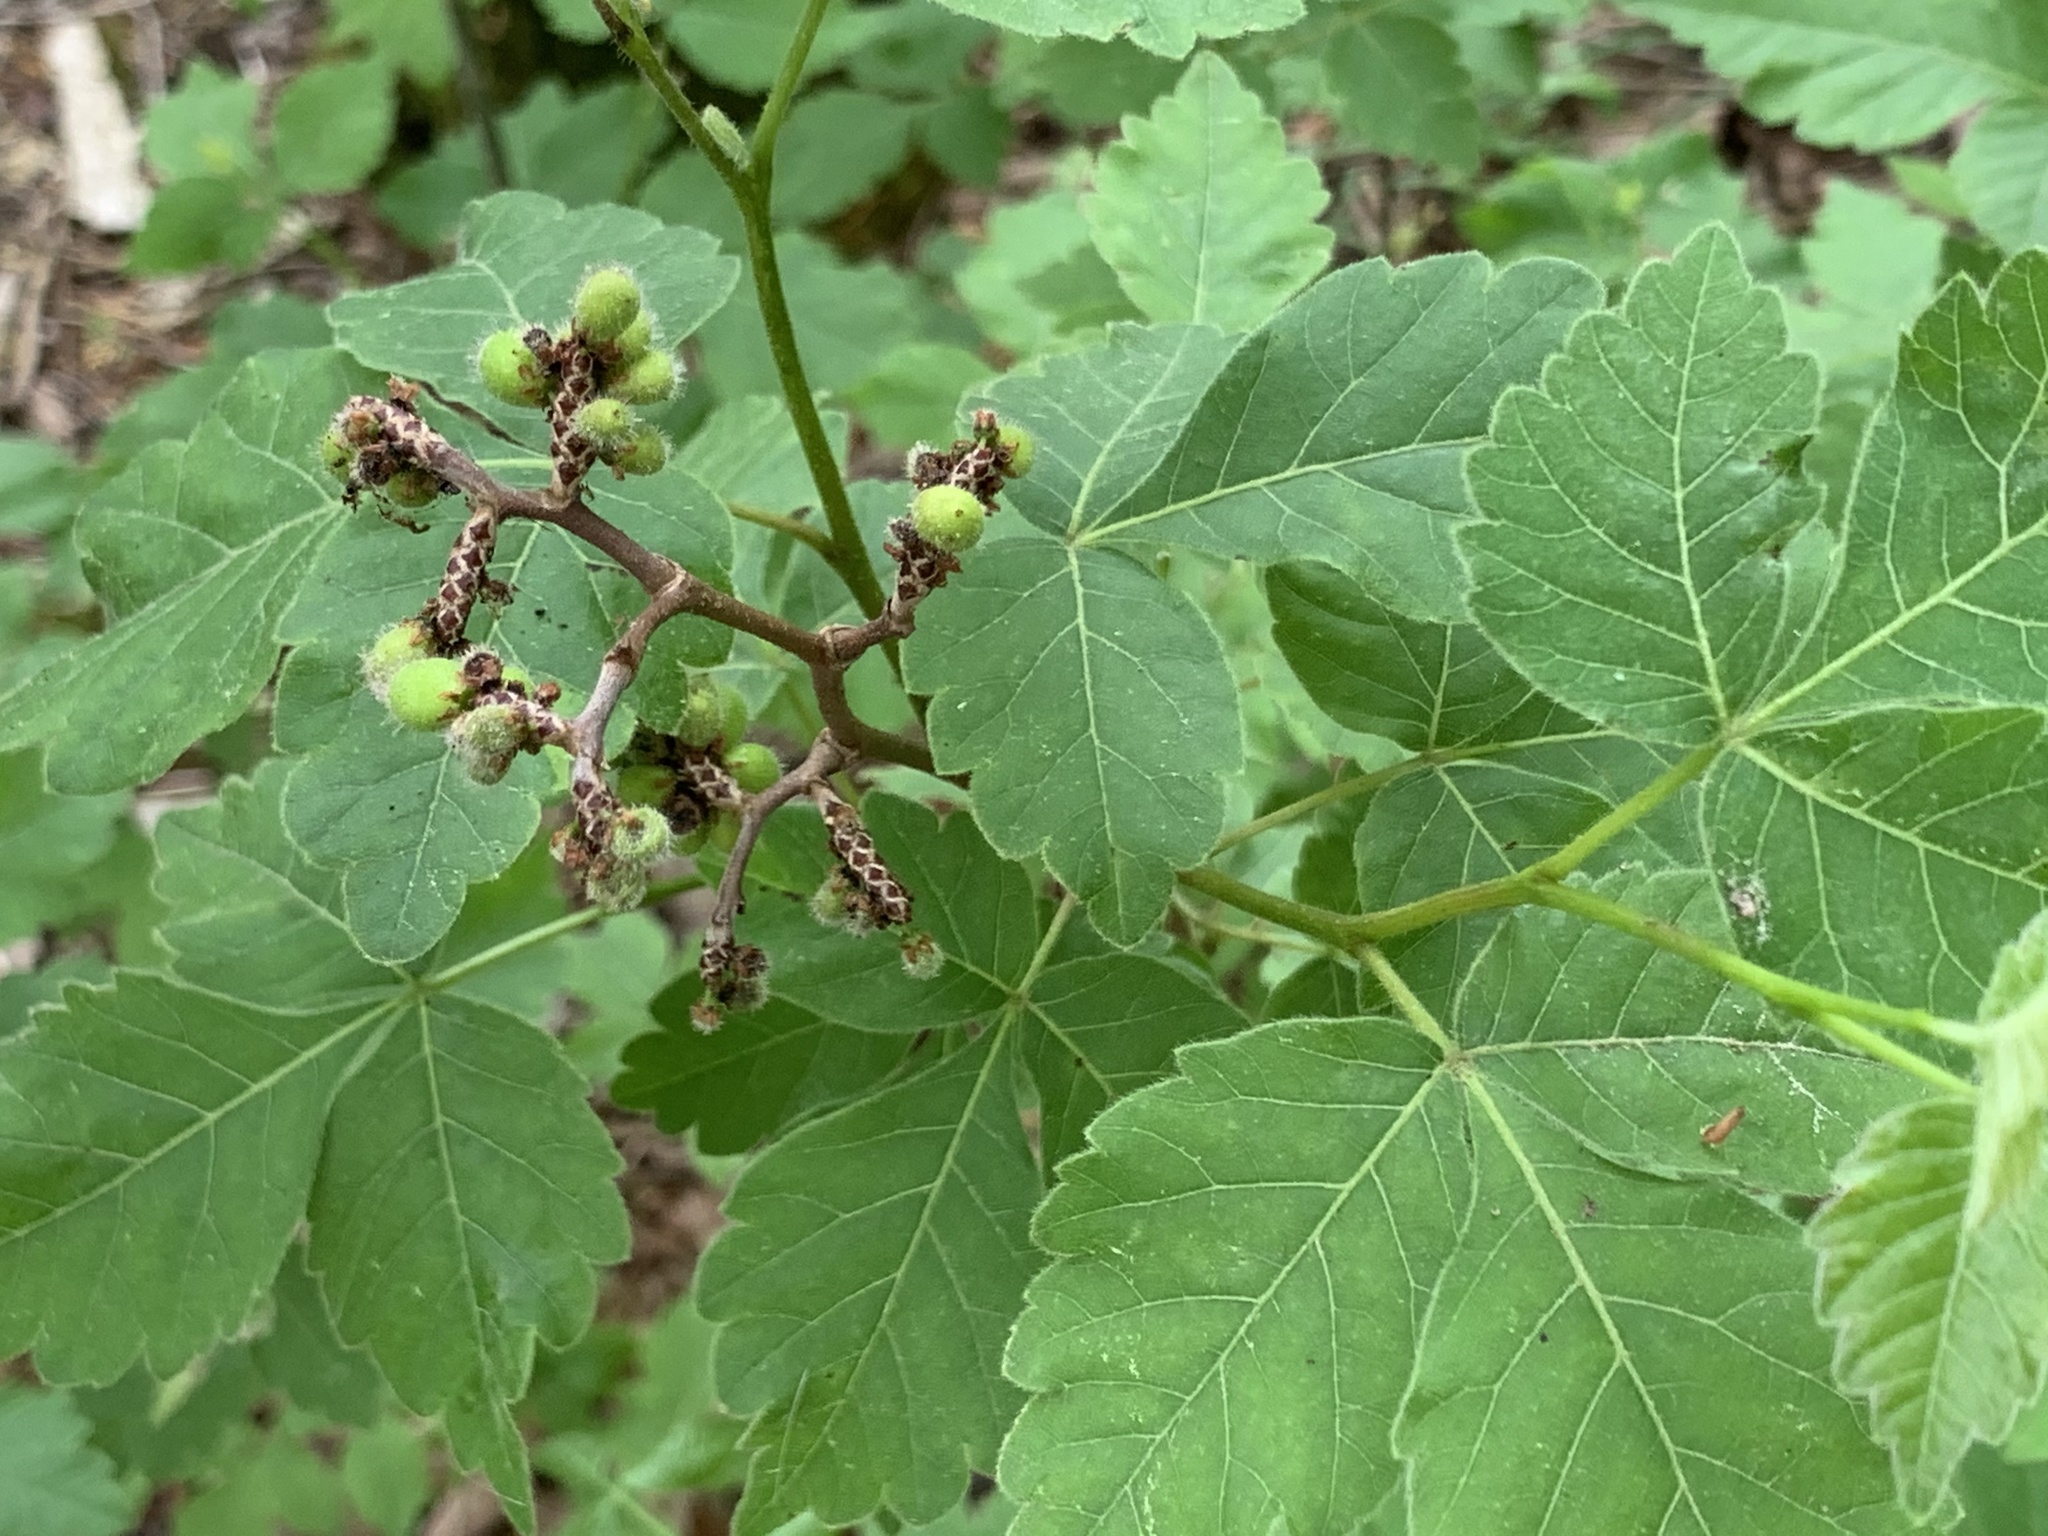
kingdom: Plantae
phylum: Tracheophyta
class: Magnoliopsida
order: Sapindales
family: Anacardiaceae
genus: Rhus
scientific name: Rhus aromatica
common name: Aromatic sumac
